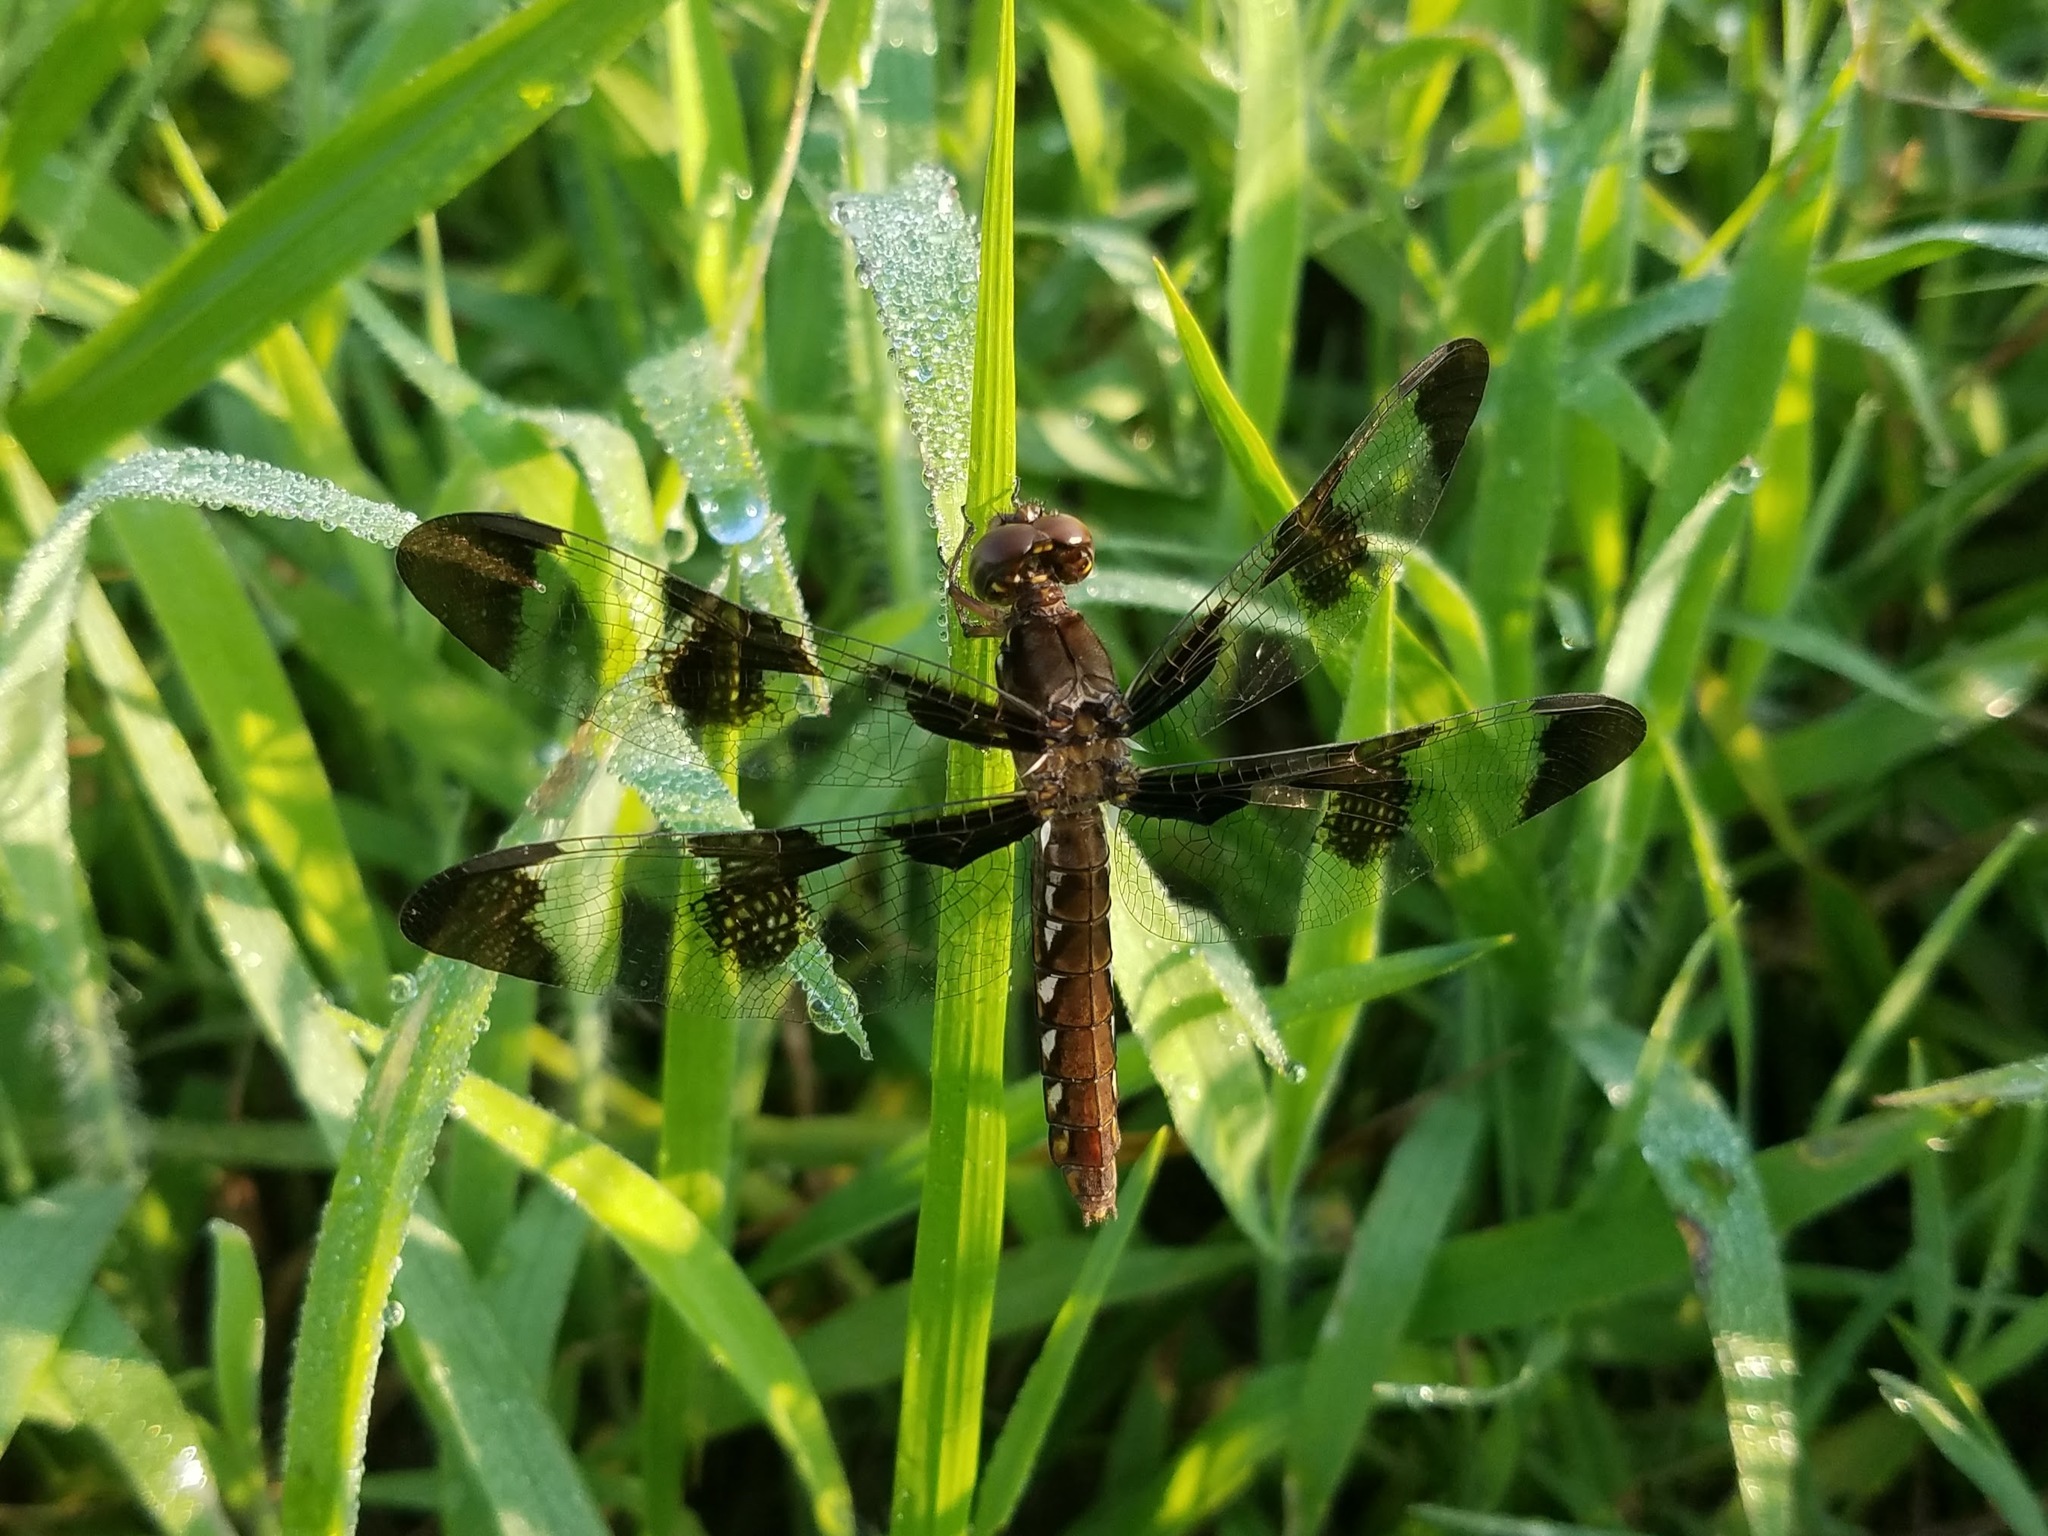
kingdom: Animalia
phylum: Arthropoda
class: Insecta
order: Odonata
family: Libellulidae
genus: Plathemis
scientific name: Plathemis lydia
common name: Common whitetail
